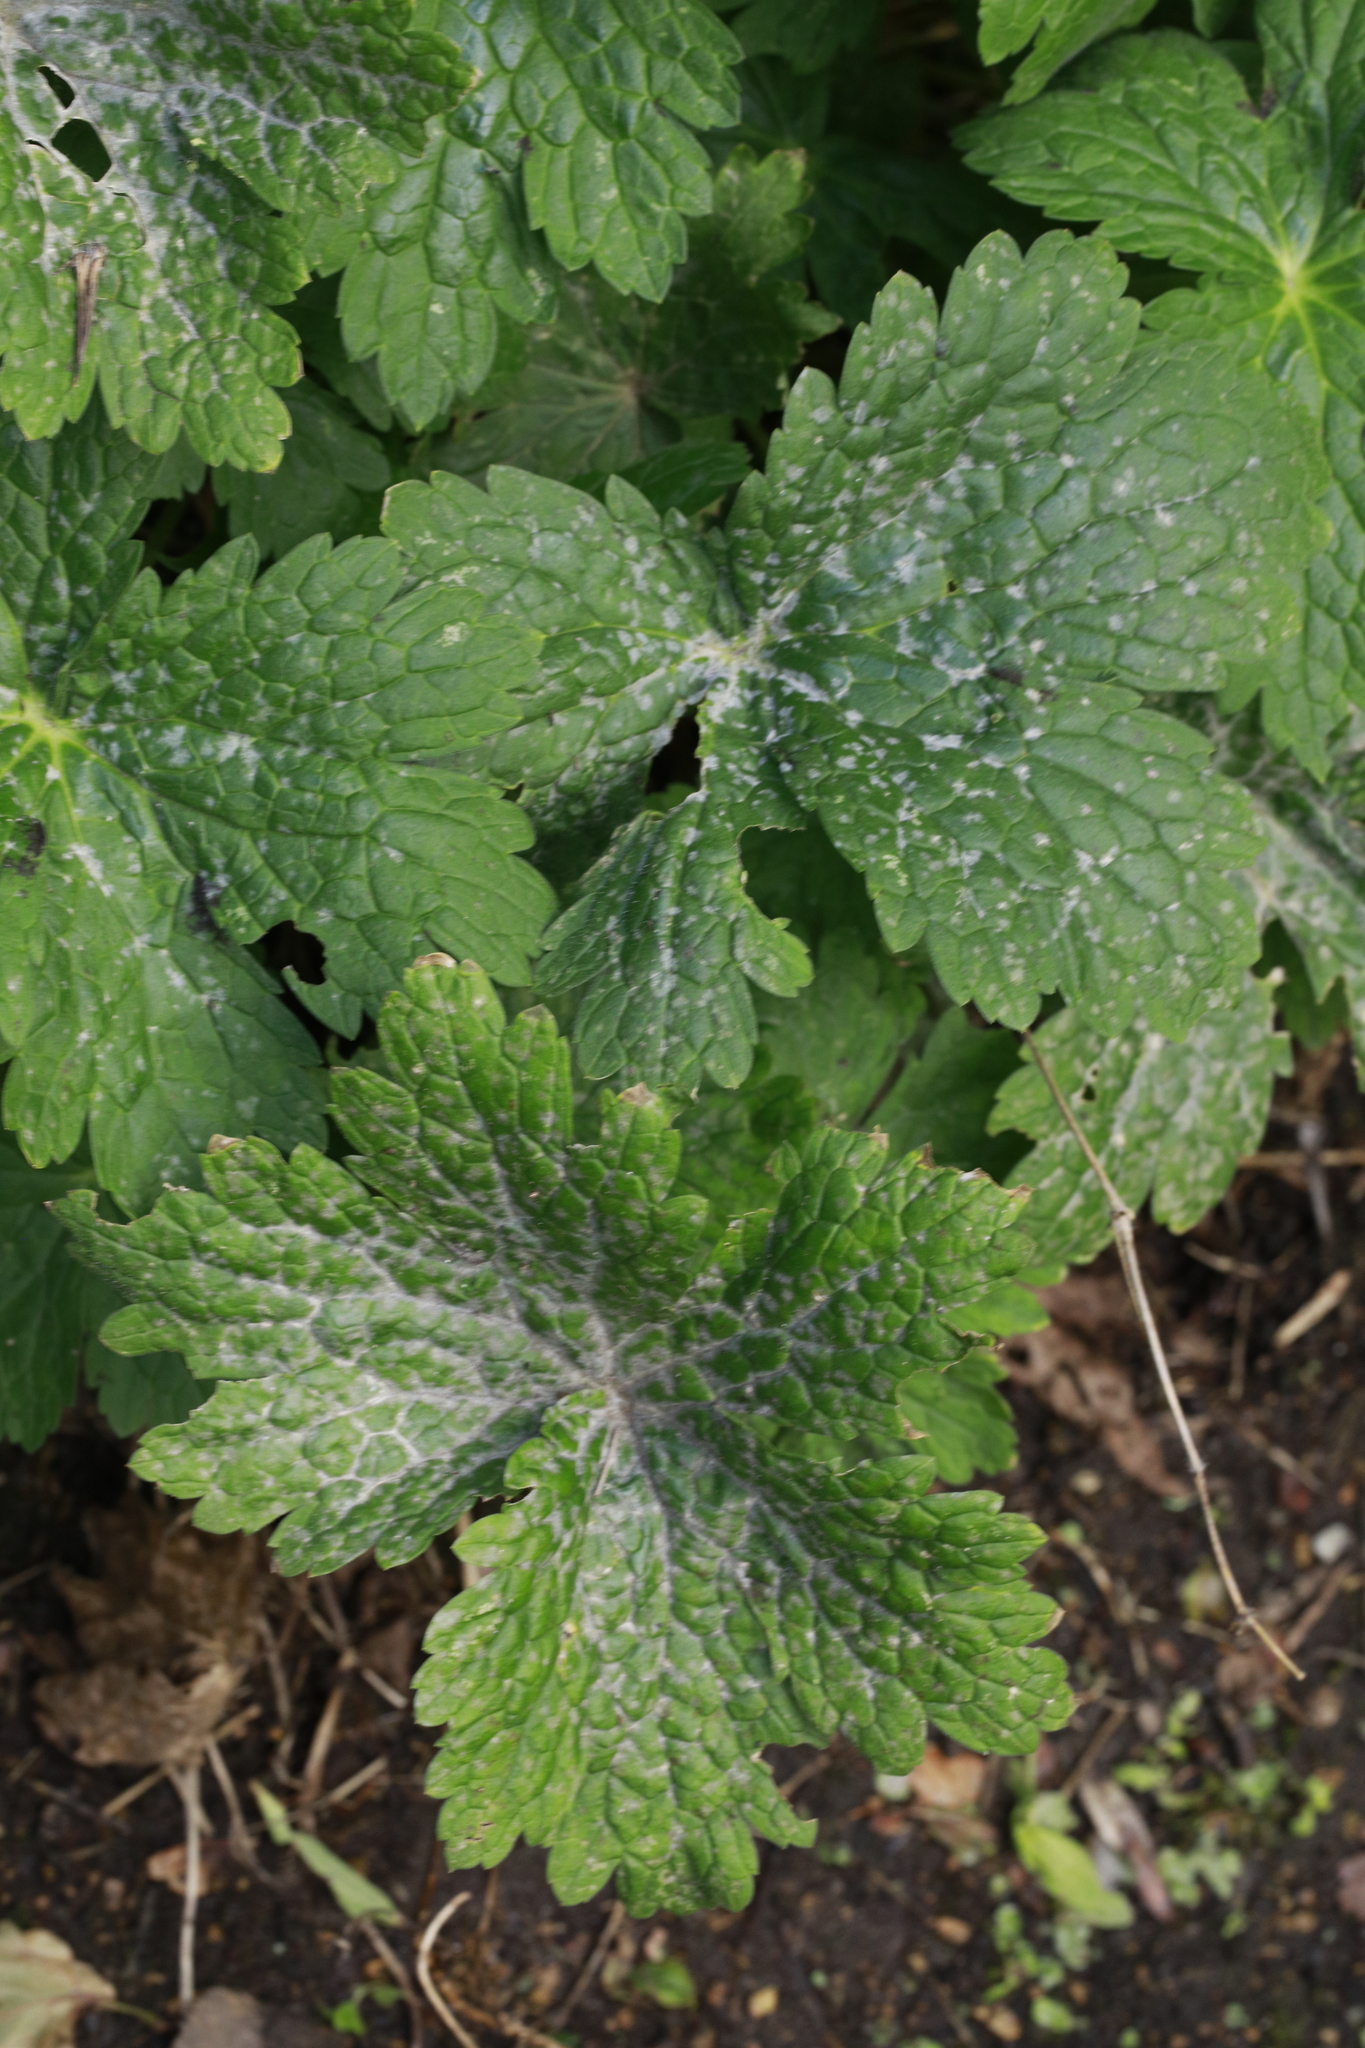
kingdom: Fungi
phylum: Ascomycota
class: Leotiomycetes
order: Helotiales
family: Erysiphaceae
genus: Neoerysiphe
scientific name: Neoerysiphe geranii
